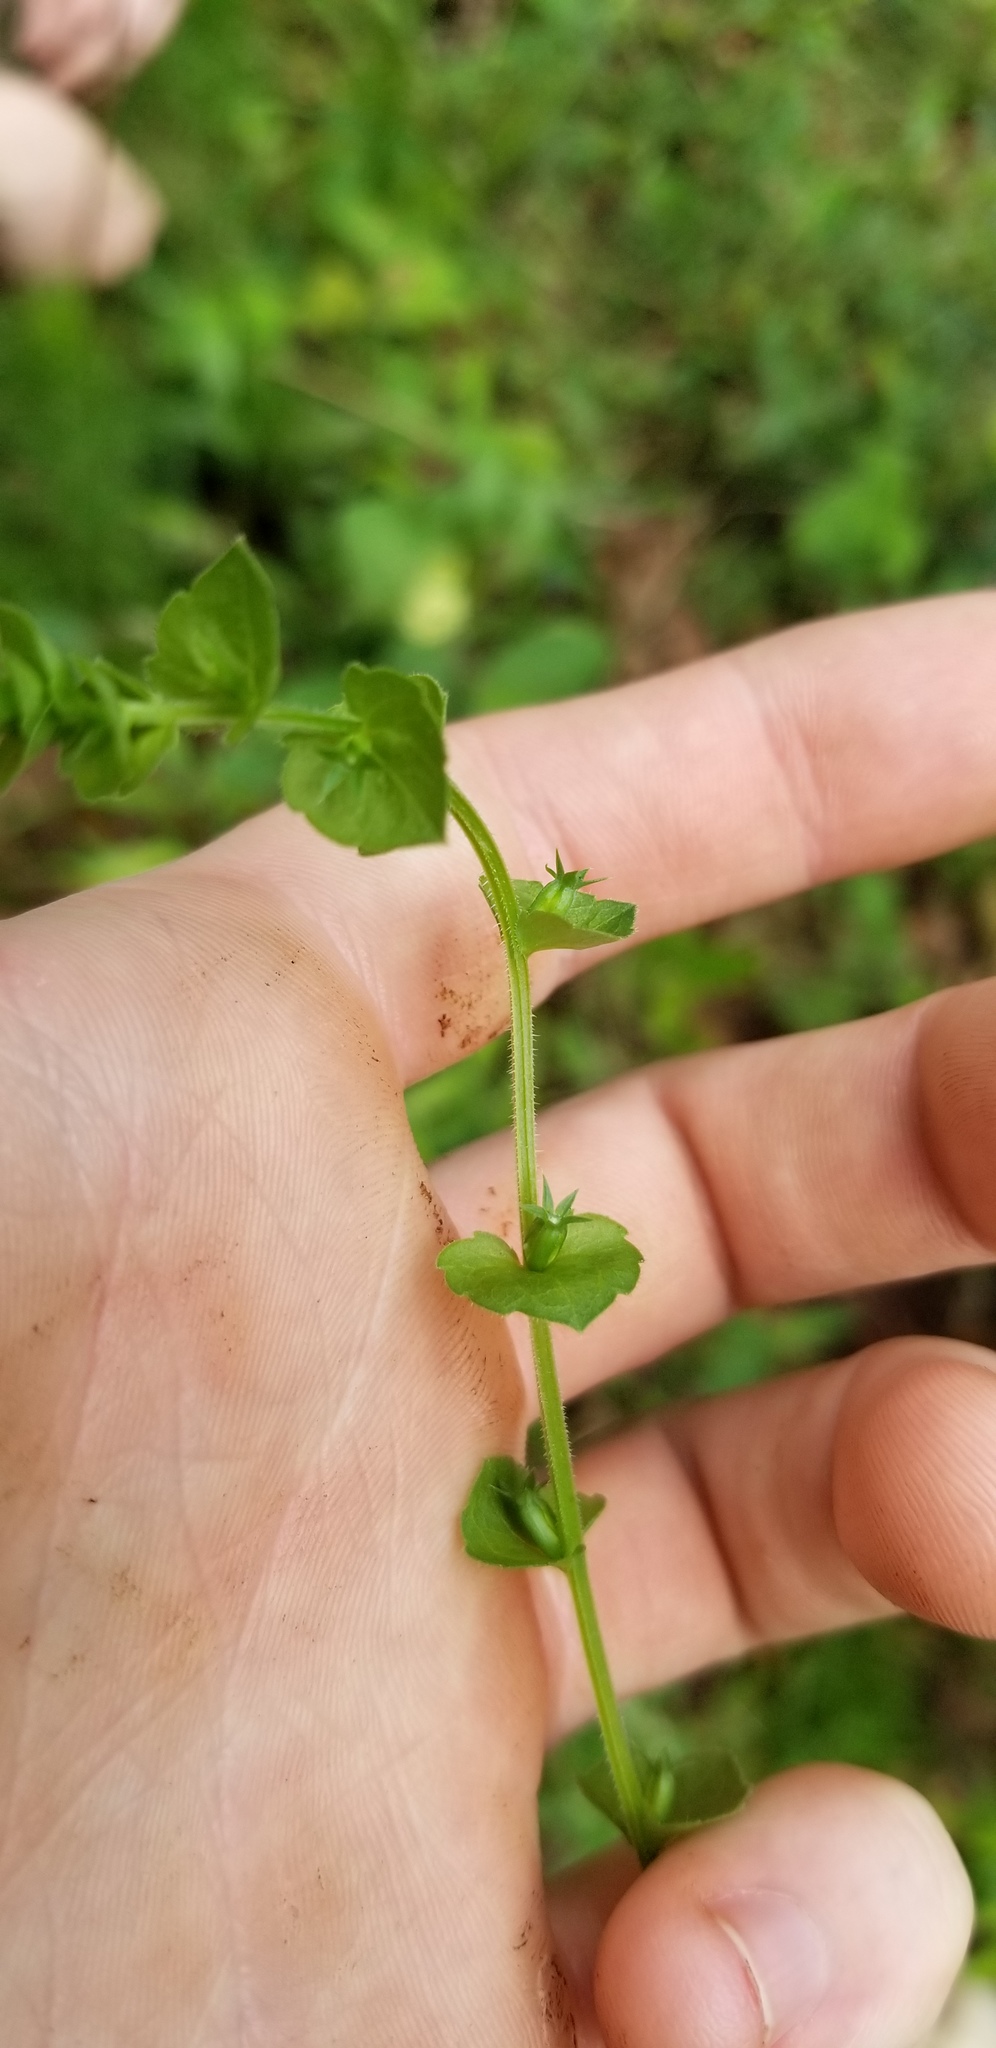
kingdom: Plantae
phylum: Tracheophyta
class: Magnoliopsida
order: Asterales
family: Campanulaceae
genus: Triodanis
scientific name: Triodanis perfoliata
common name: Clasping venus' looking-glass
